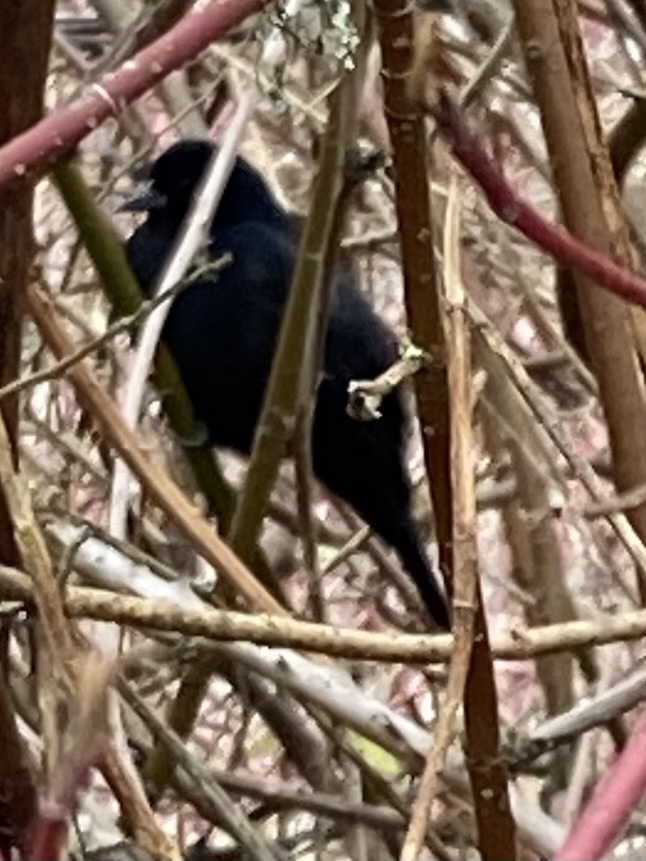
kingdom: Animalia
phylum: Chordata
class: Aves
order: Passeriformes
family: Icteridae
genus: Agelaius
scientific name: Agelaius phoeniceus
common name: Red-winged blackbird
